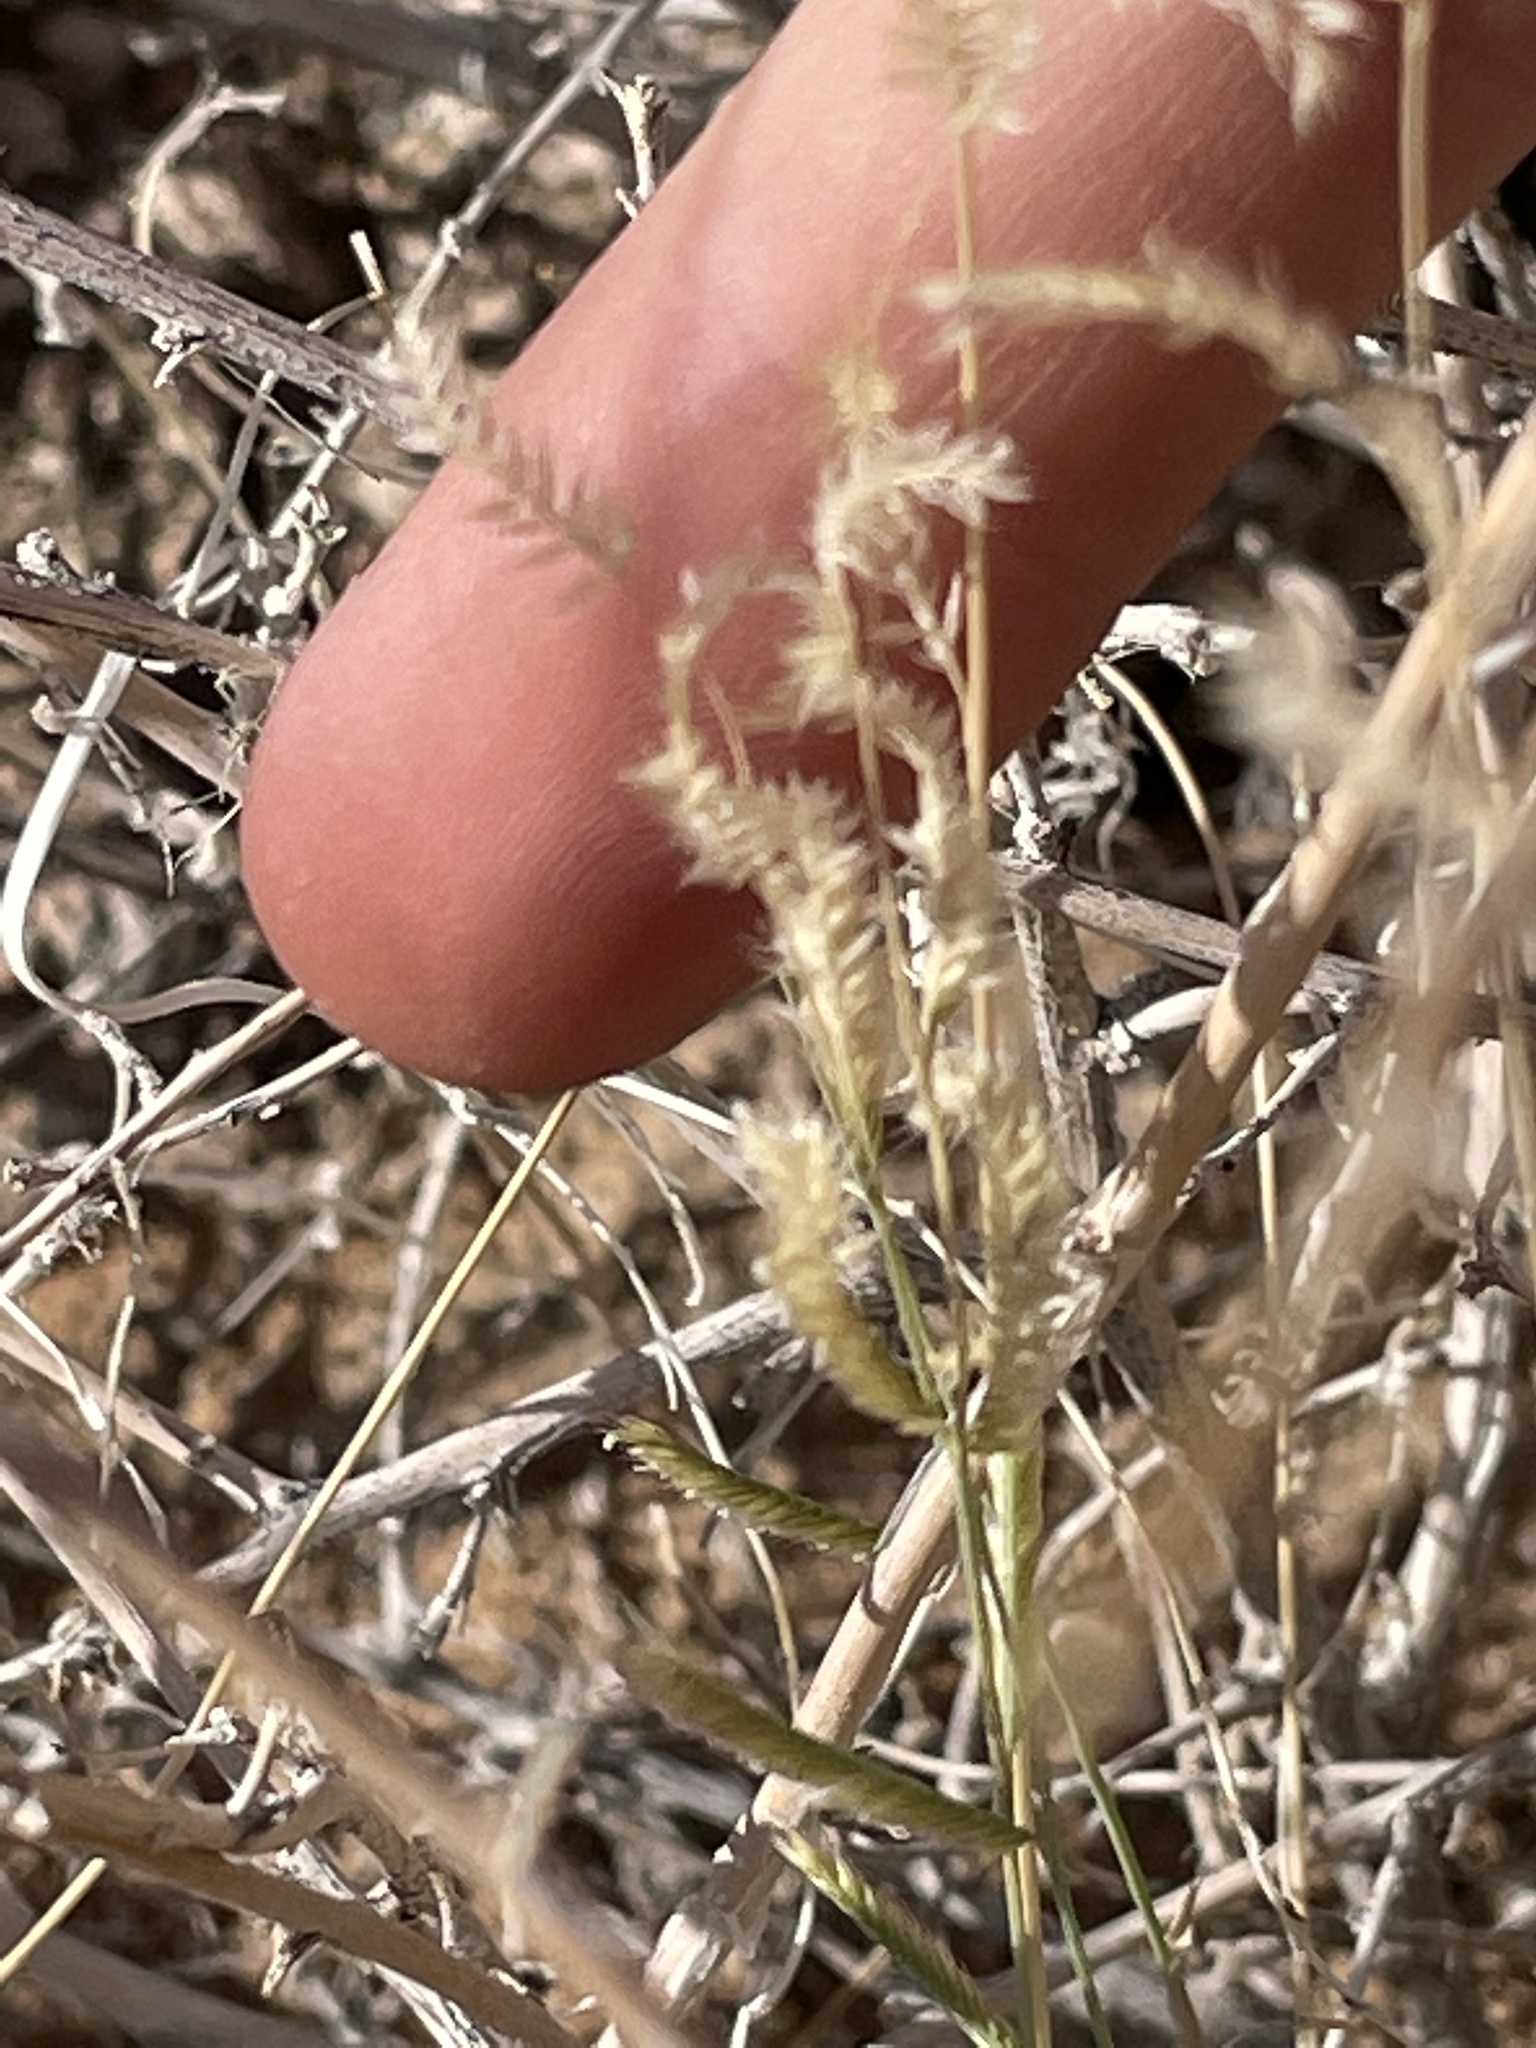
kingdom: Plantae
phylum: Tracheophyta
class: Liliopsida
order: Poales
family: Poaceae
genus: Bouteloua
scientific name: Bouteloua barbata
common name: Six-weeks grama
